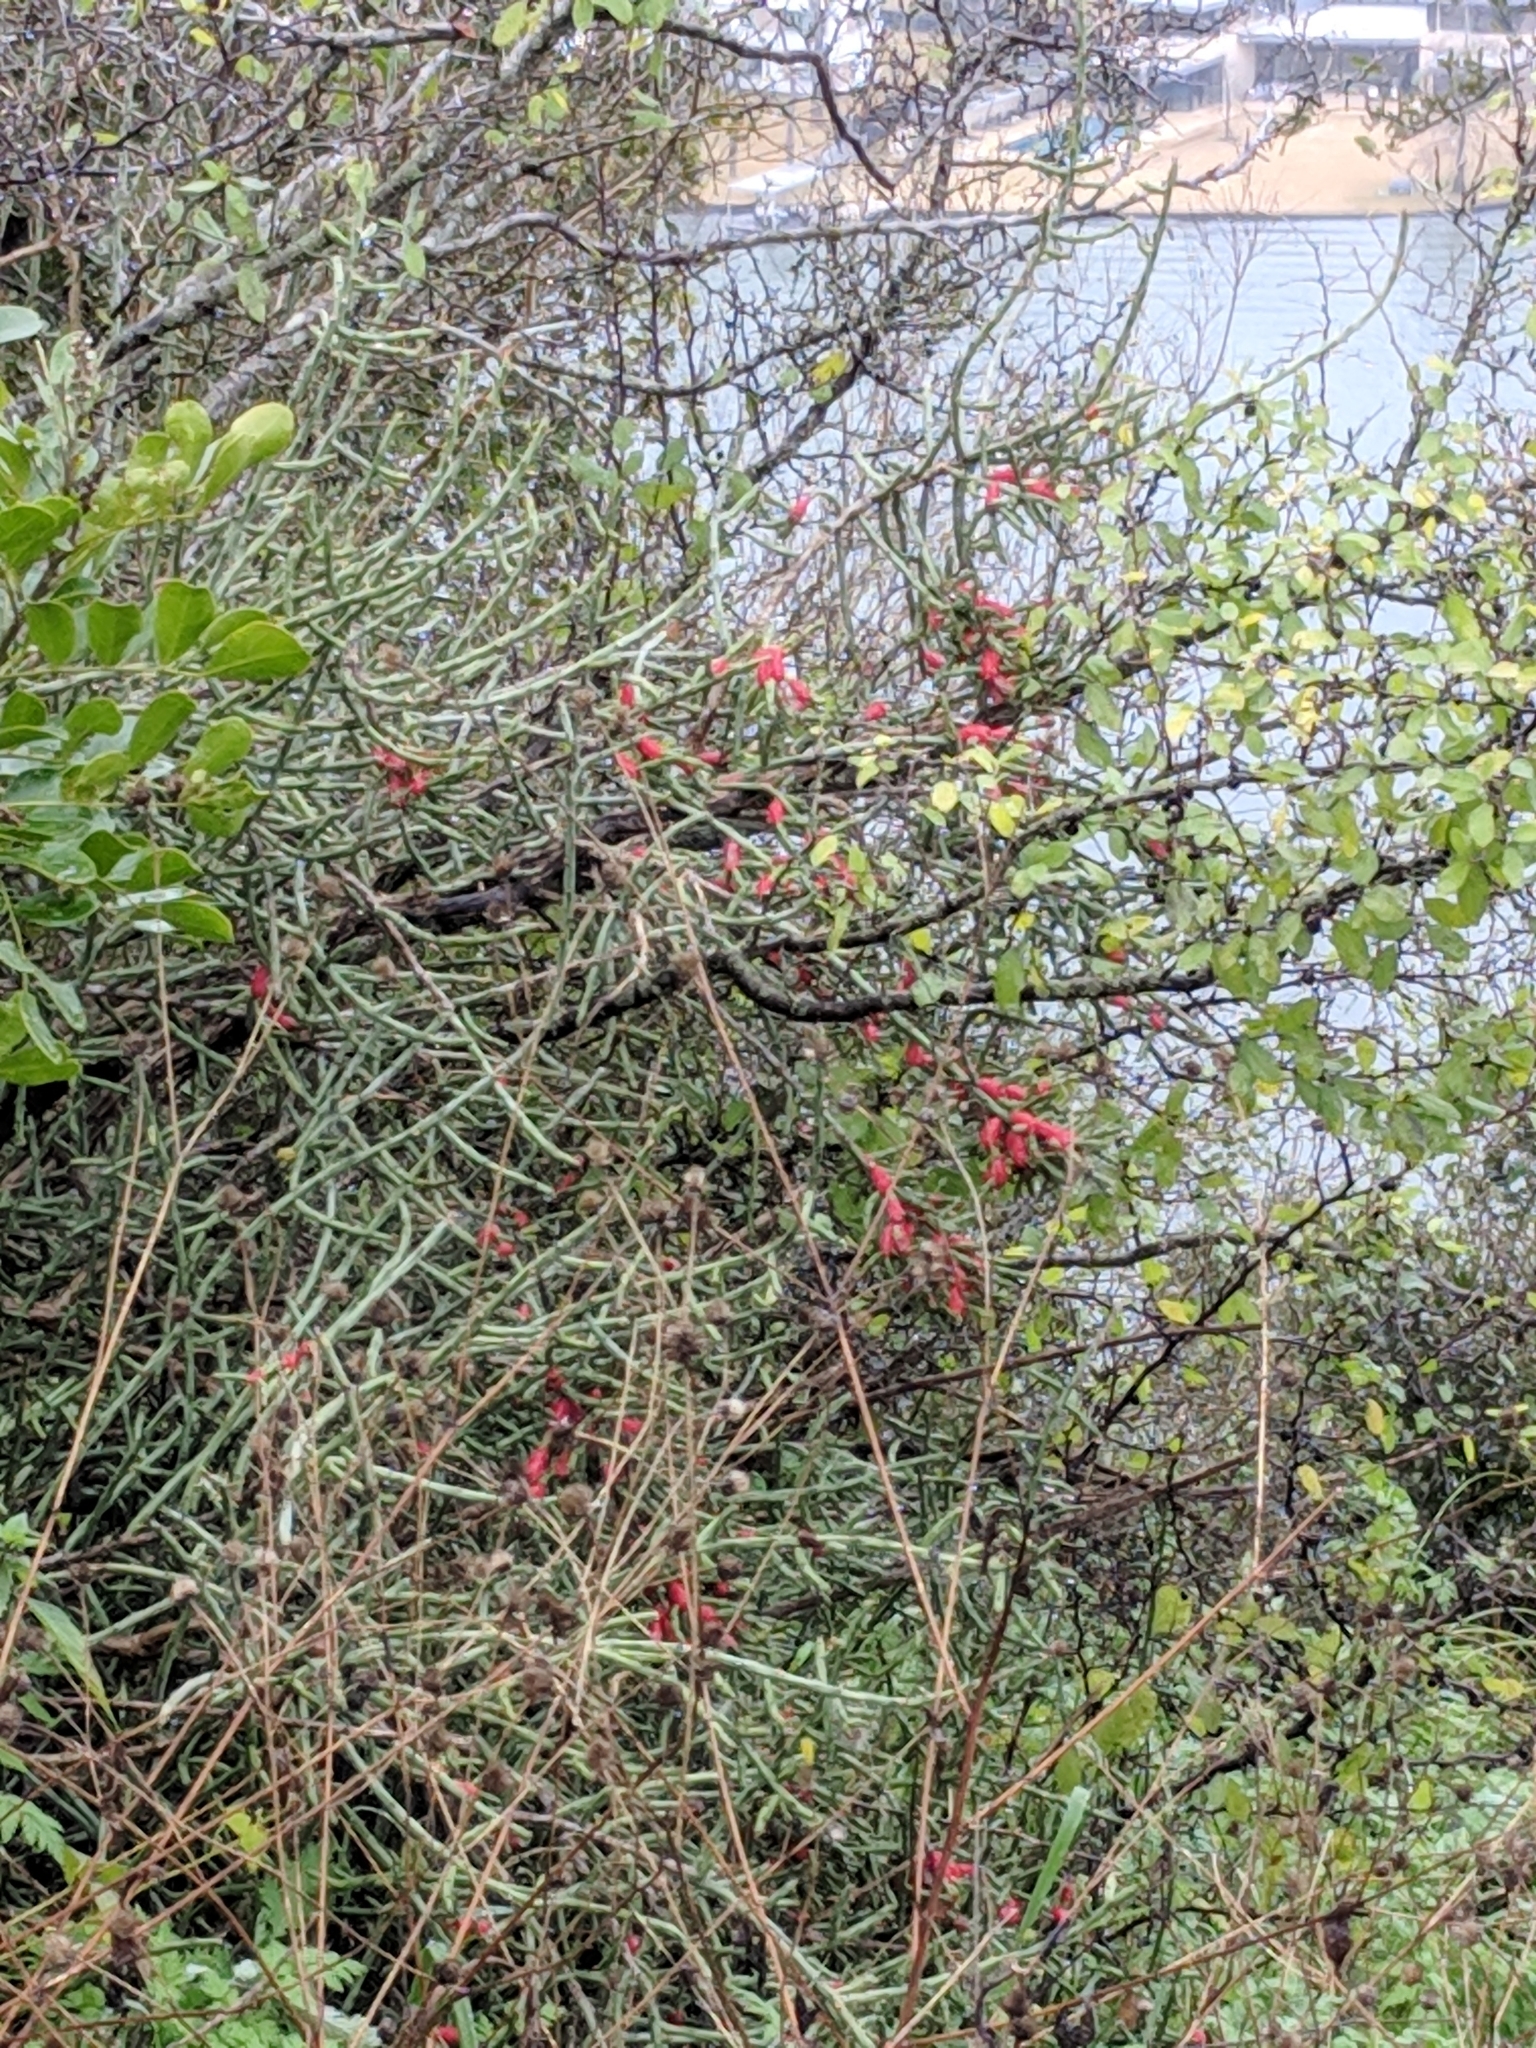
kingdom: Plantae
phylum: Tracheophyta
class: Magnoliopsida
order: Caryophyllales
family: Cactaceae
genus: Cylindropuntia
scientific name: Cylindropuntia leptocaulis
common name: Christmas cactus
